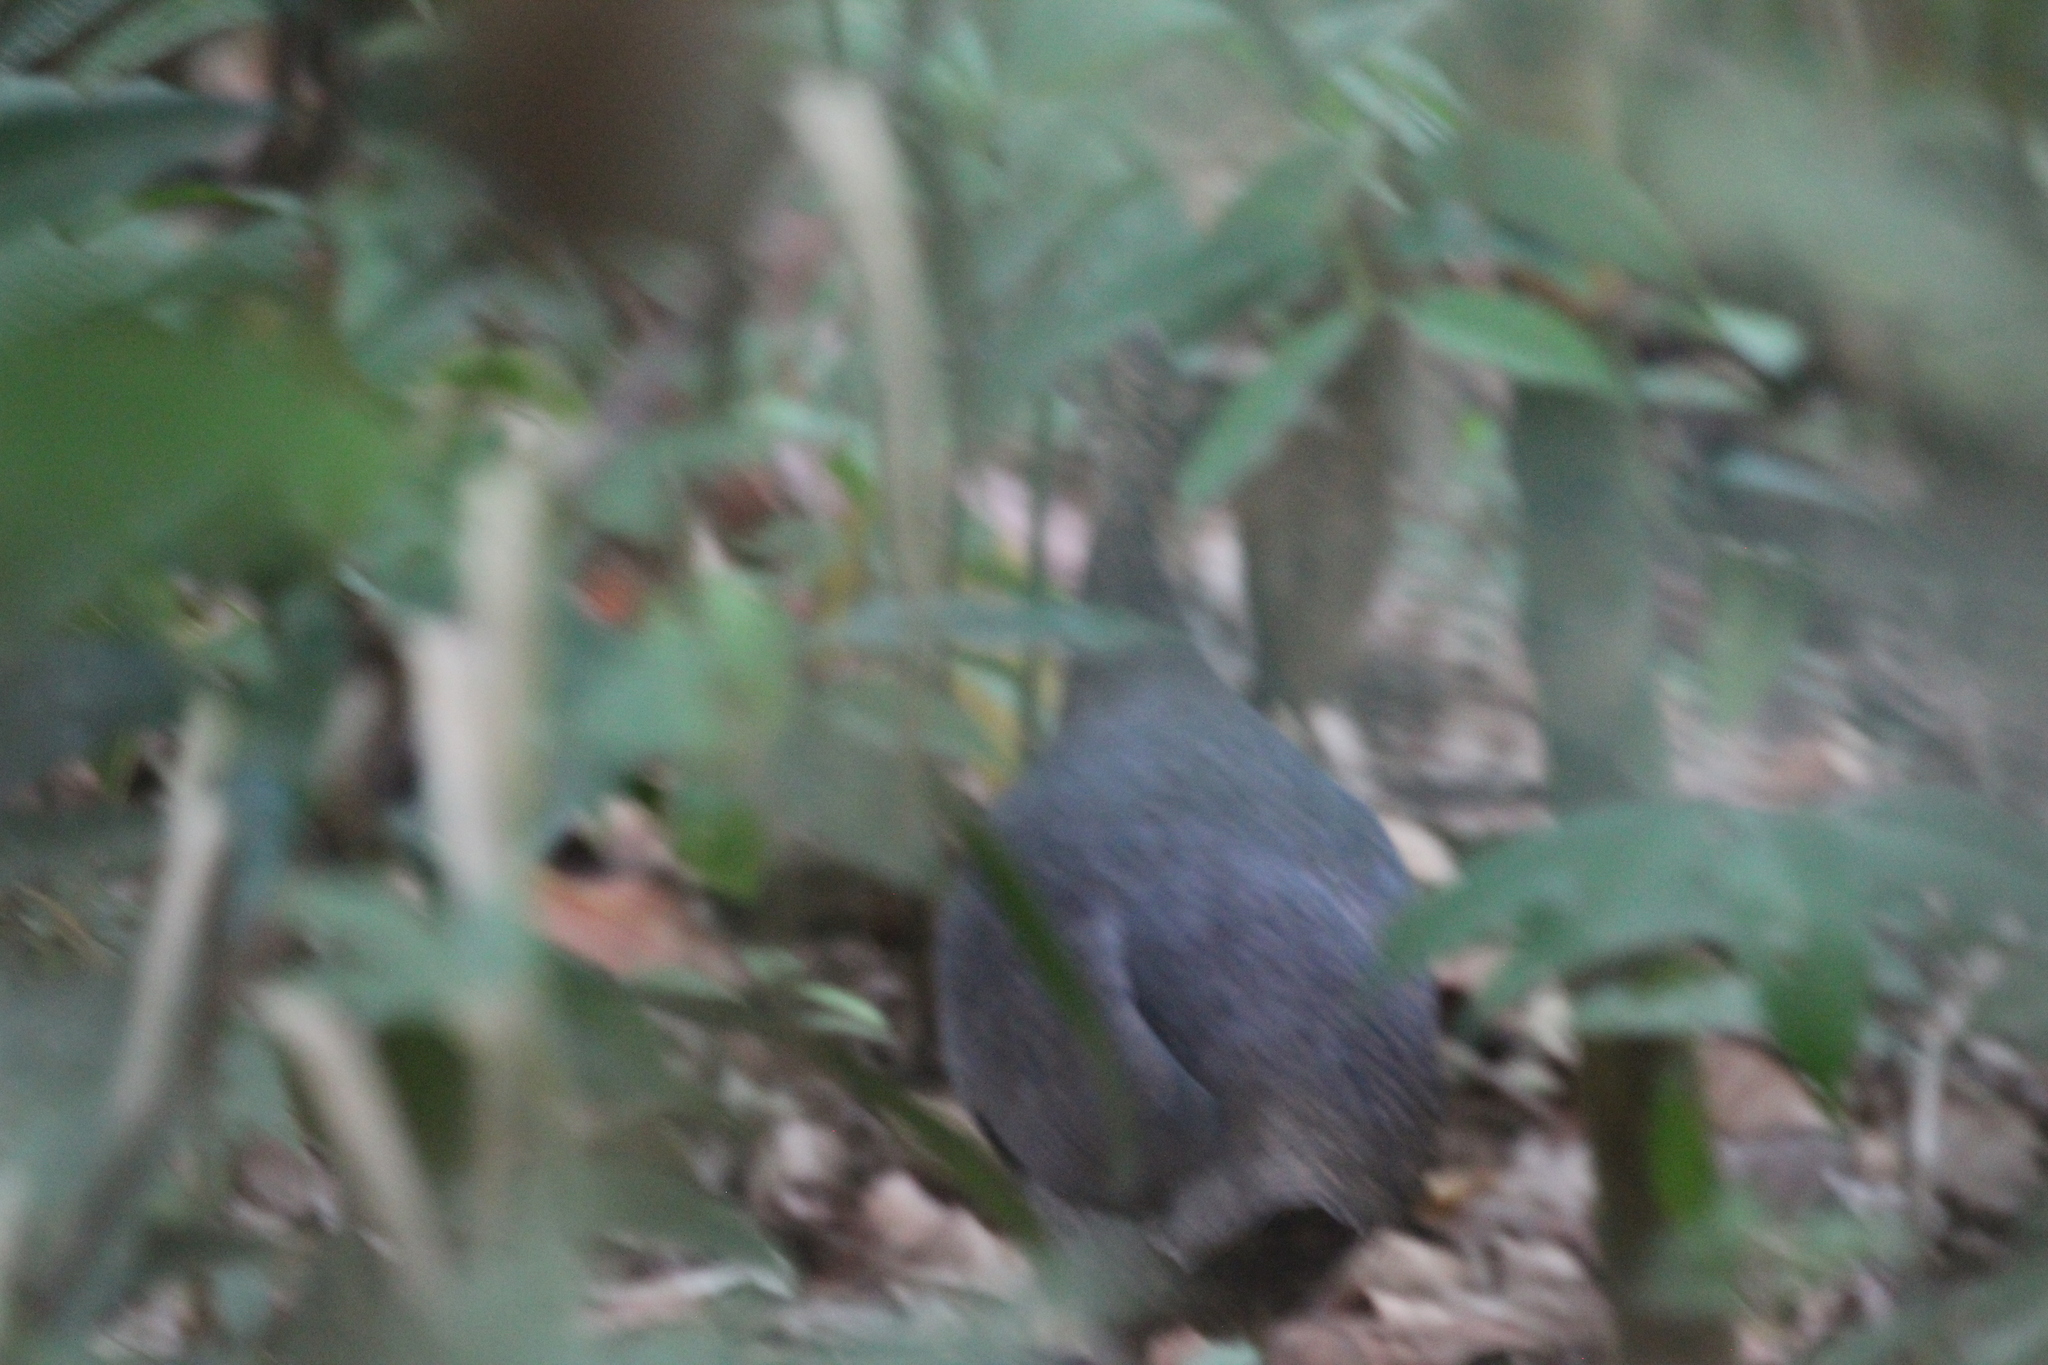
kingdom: Animalia
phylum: Chordata
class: Aves
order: Tinamiformes
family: Tinamidae
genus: Tinamus
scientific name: Tinamus major
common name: Great tinamou
